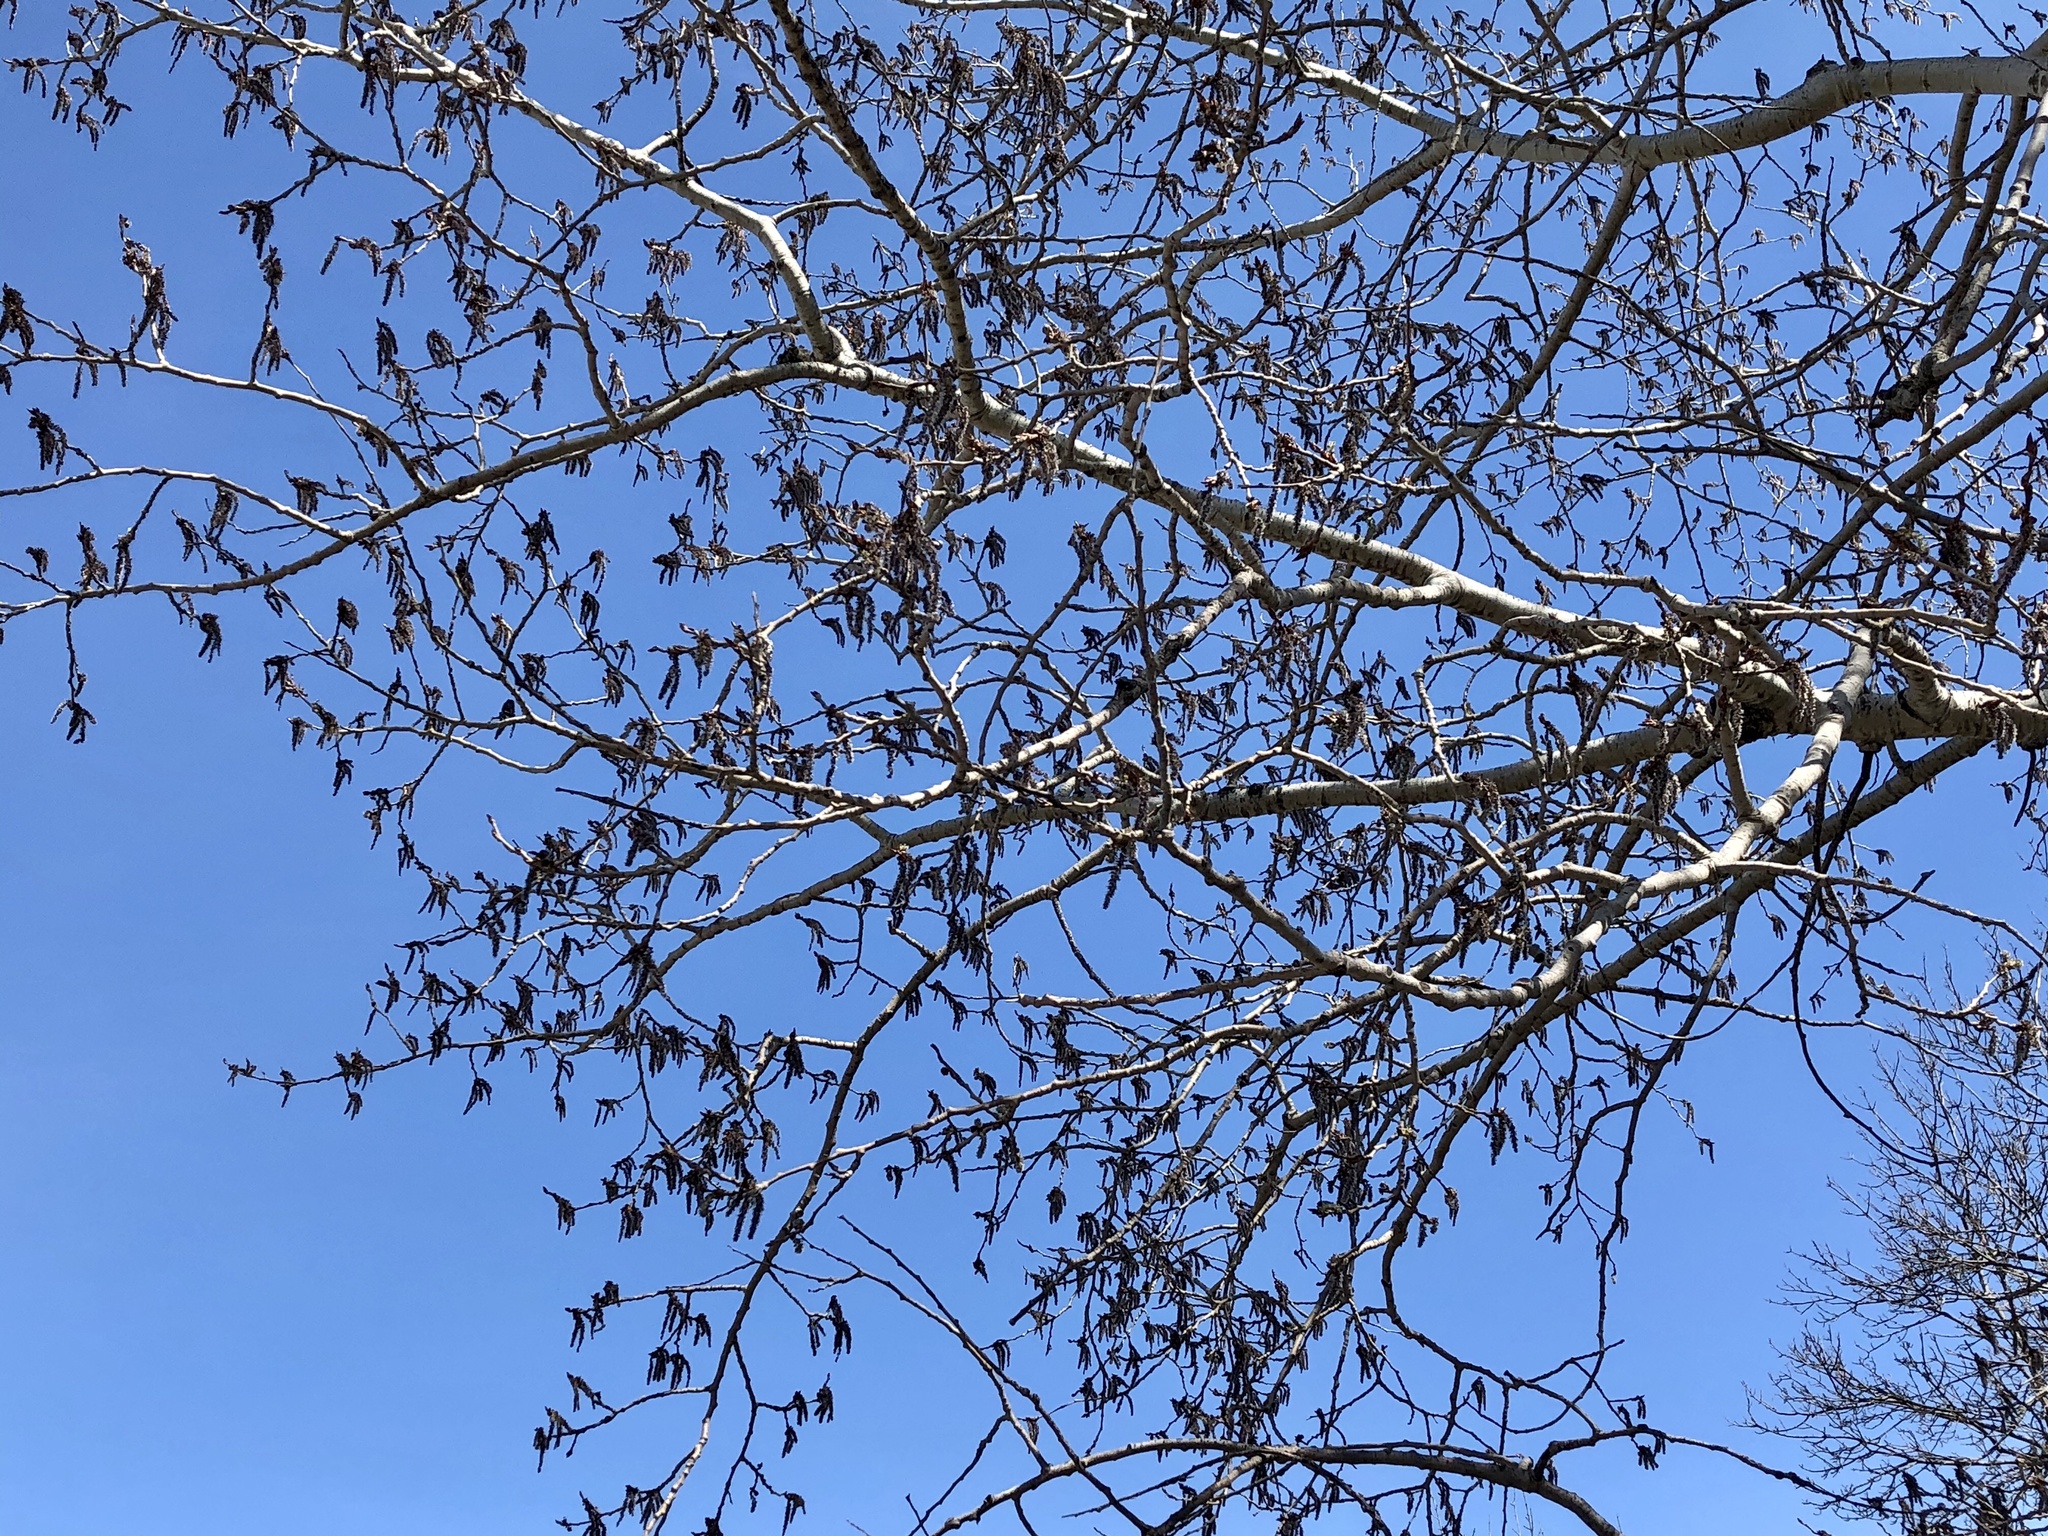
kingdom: Plantae
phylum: Tracheophyta
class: Magnoliopsida
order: Malpighiales
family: Salicaceae
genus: Populus
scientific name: Populus tremuloides
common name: Quaking aspen
